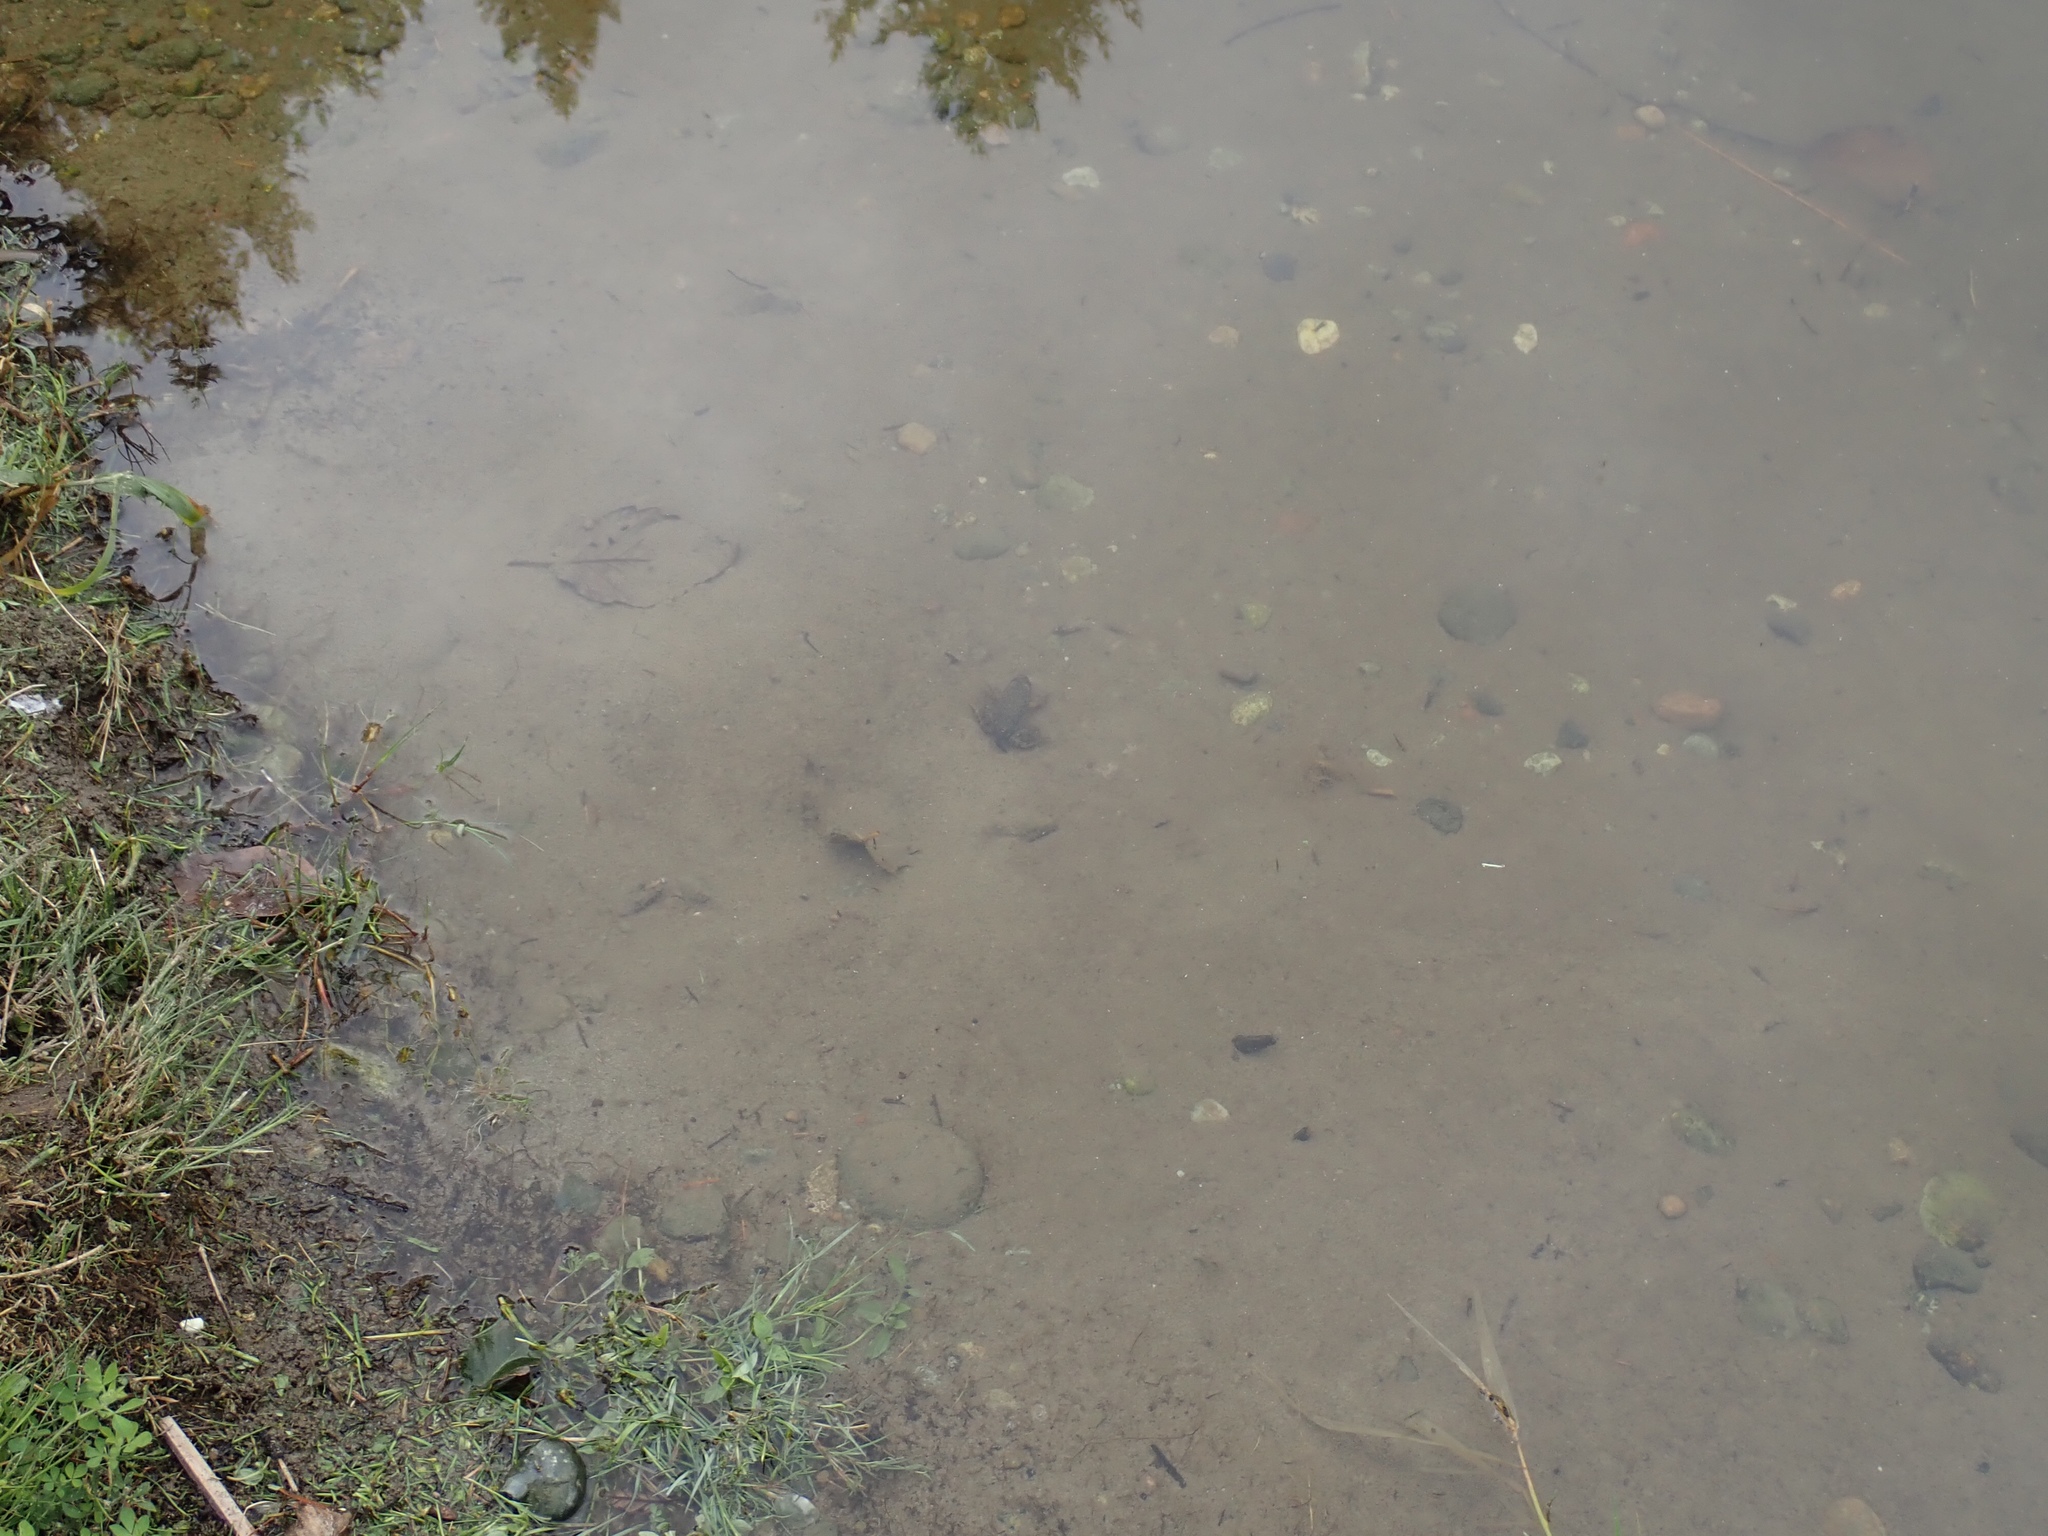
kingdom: Animalia
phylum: Chordata
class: Amphibia
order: Anura
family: Ranidae
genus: Lithobates
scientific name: Lithobates catesbeianus
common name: American bullfrog
